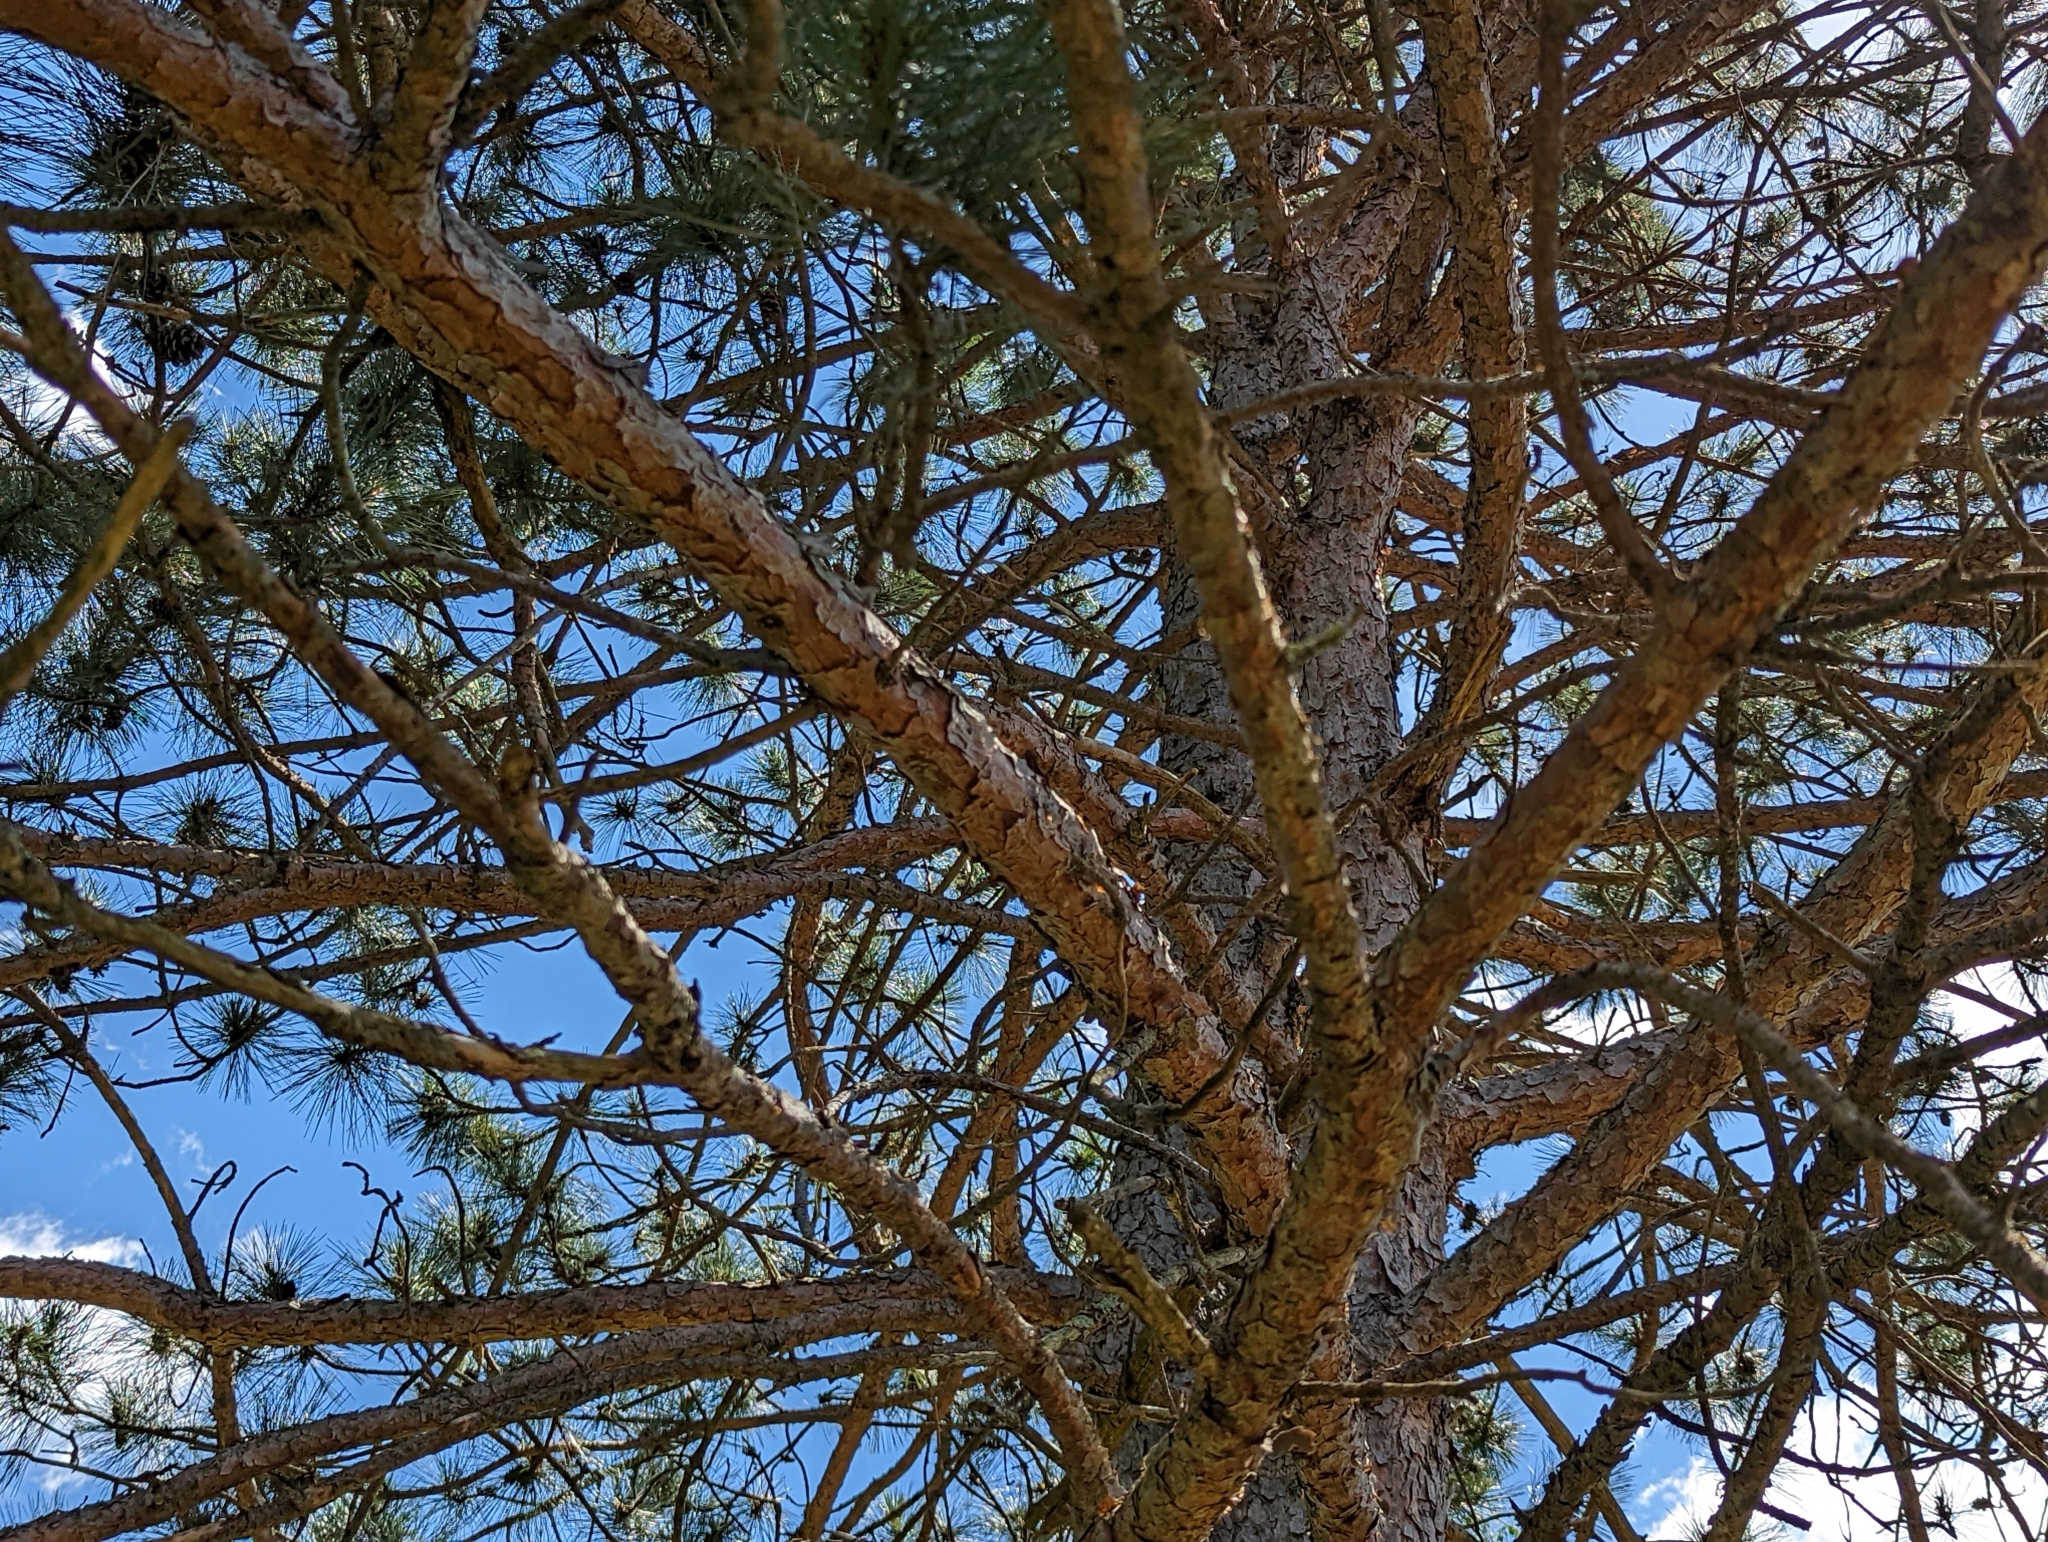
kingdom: Plantae
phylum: Tracheophyta
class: Pinopsida
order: Pinales
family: Pinaceae
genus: Pinus
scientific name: Pinus resinosa
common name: Norway pine
